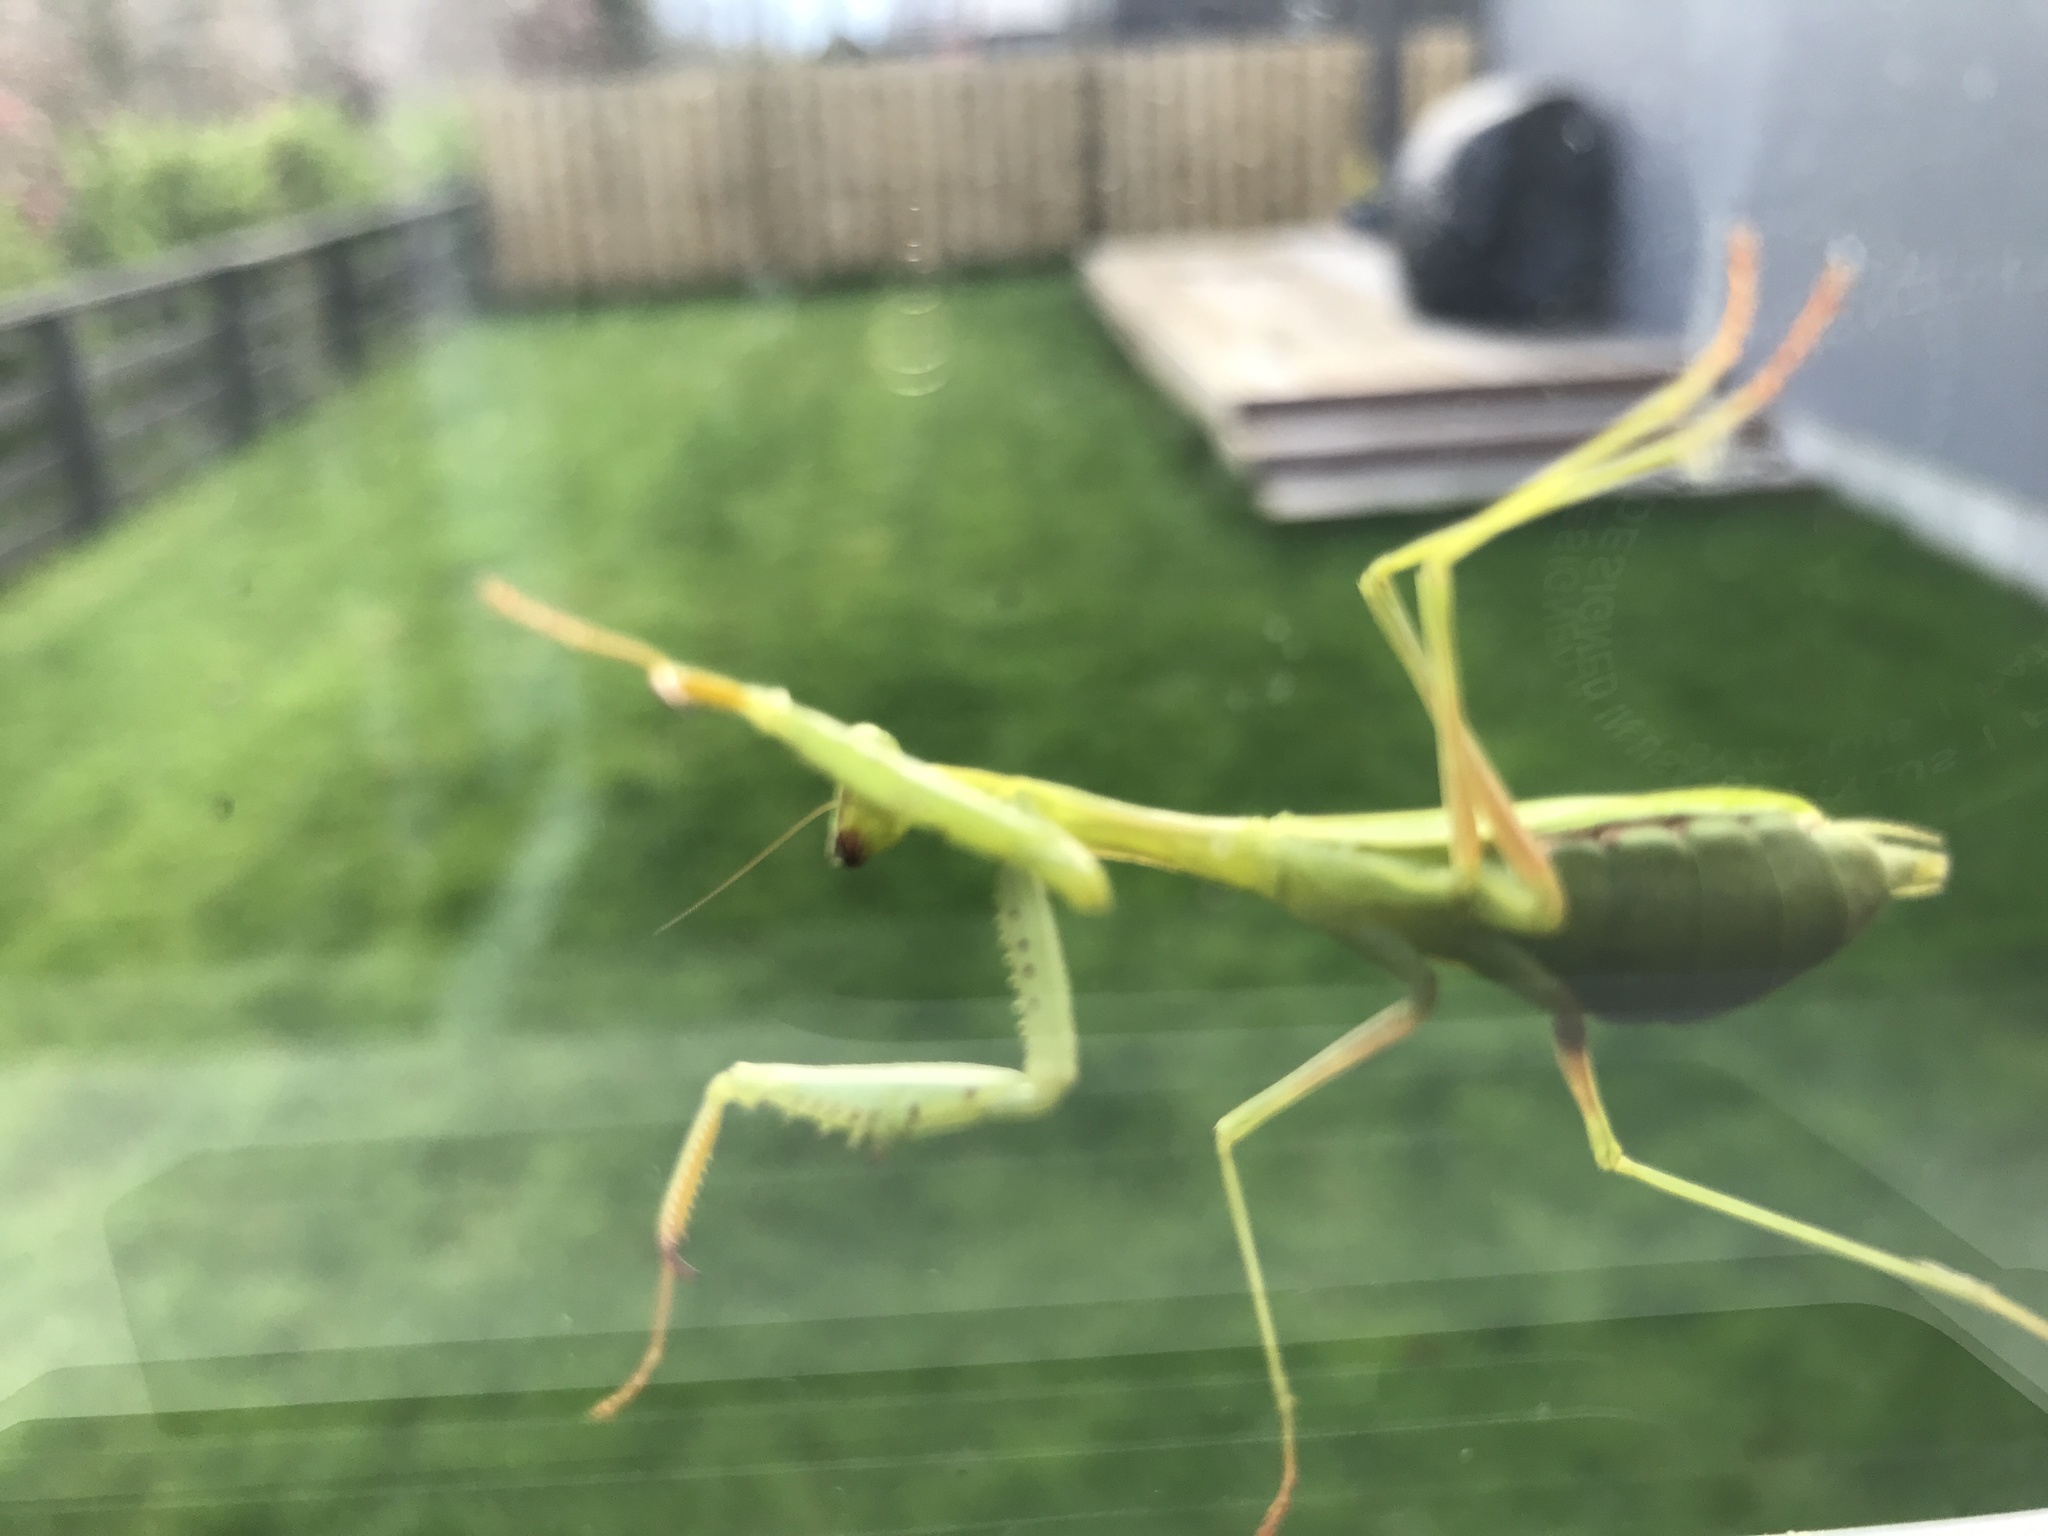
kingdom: Animalia
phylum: Arthropoda
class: Insecta
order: Mantodea
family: Miomantidae
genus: Miomantis
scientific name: Miomantis caffra
